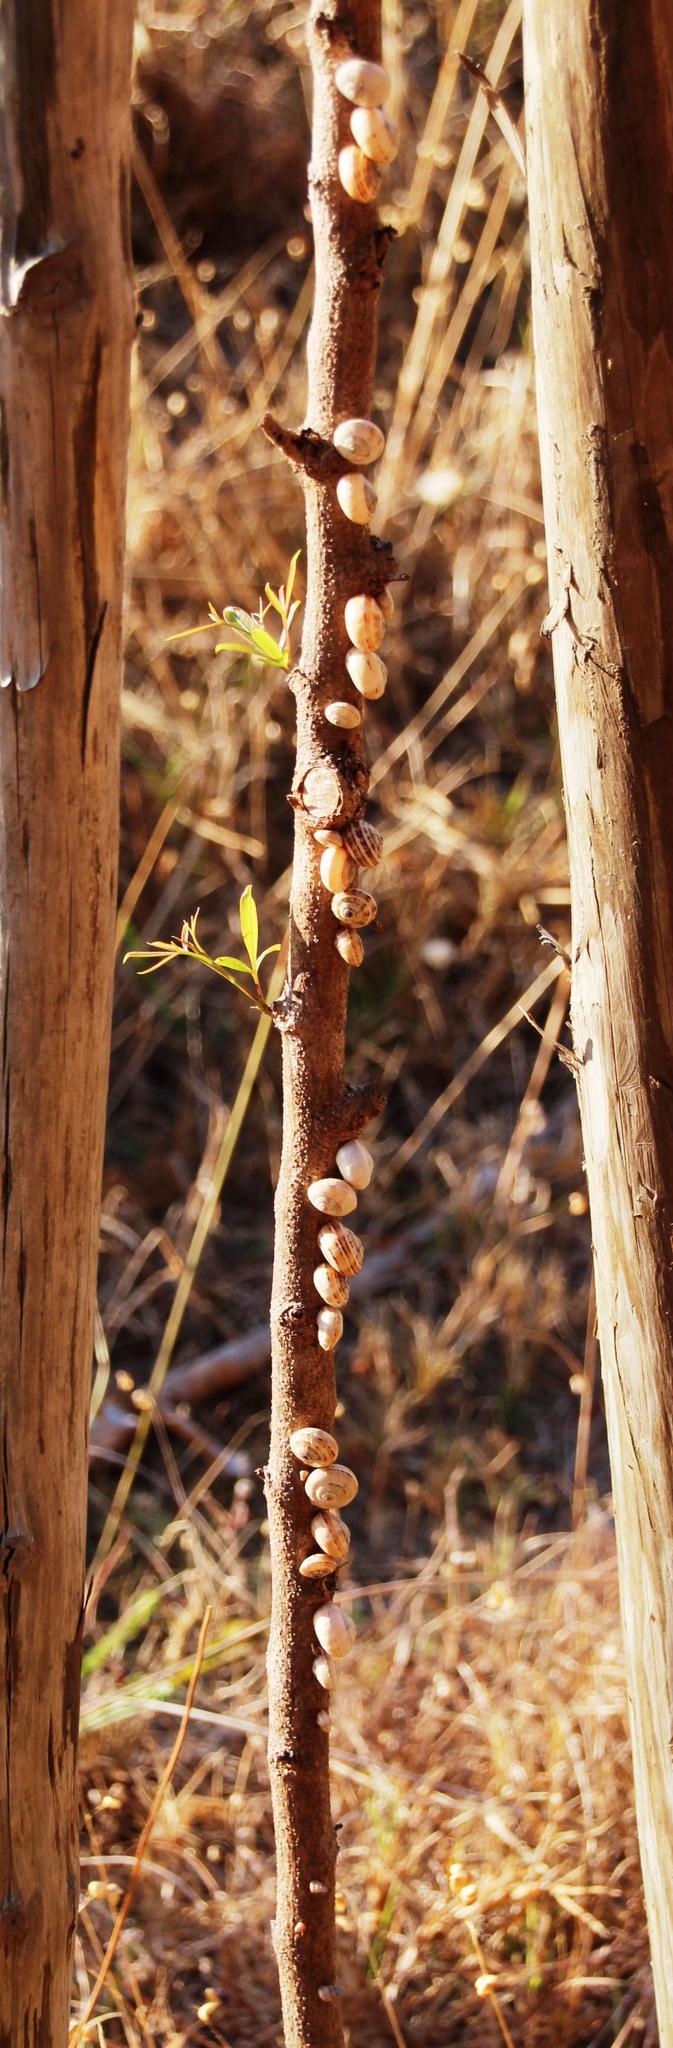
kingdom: Animalia
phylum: Mollusca
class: Gastropoda
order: Stylommatophora
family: Helicidae
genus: Theba
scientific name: Theba pisana
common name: White snail
